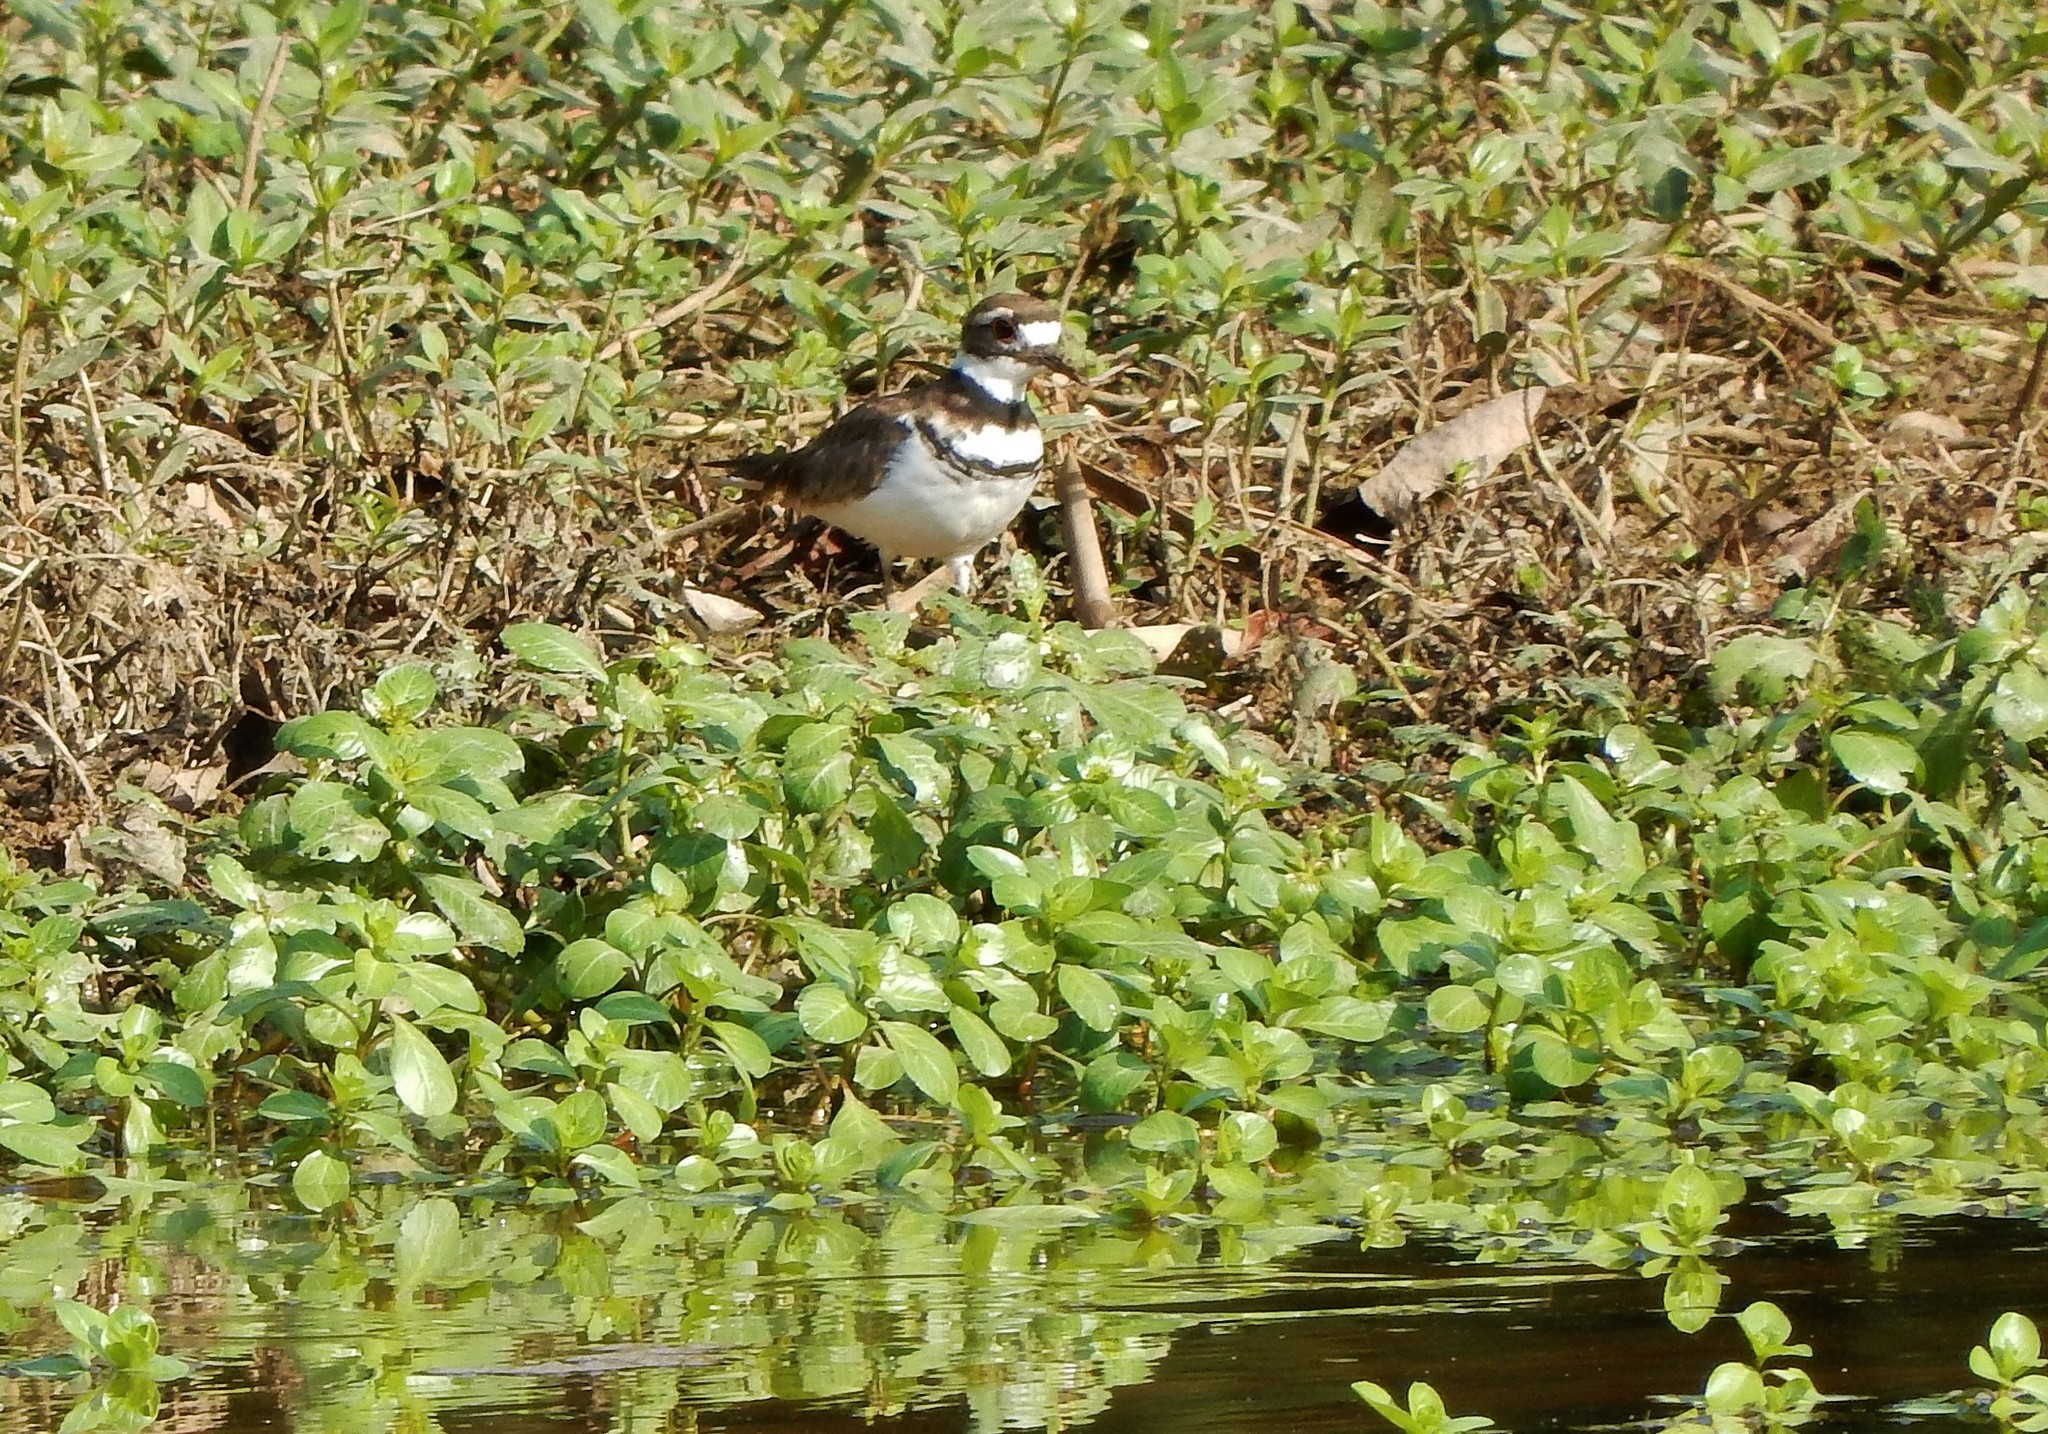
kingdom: Animalia
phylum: Chordata
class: Aves
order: Charadriiformes
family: Charadriidae
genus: Charadrius
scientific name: Charadrius vociferus
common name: Killdeer
